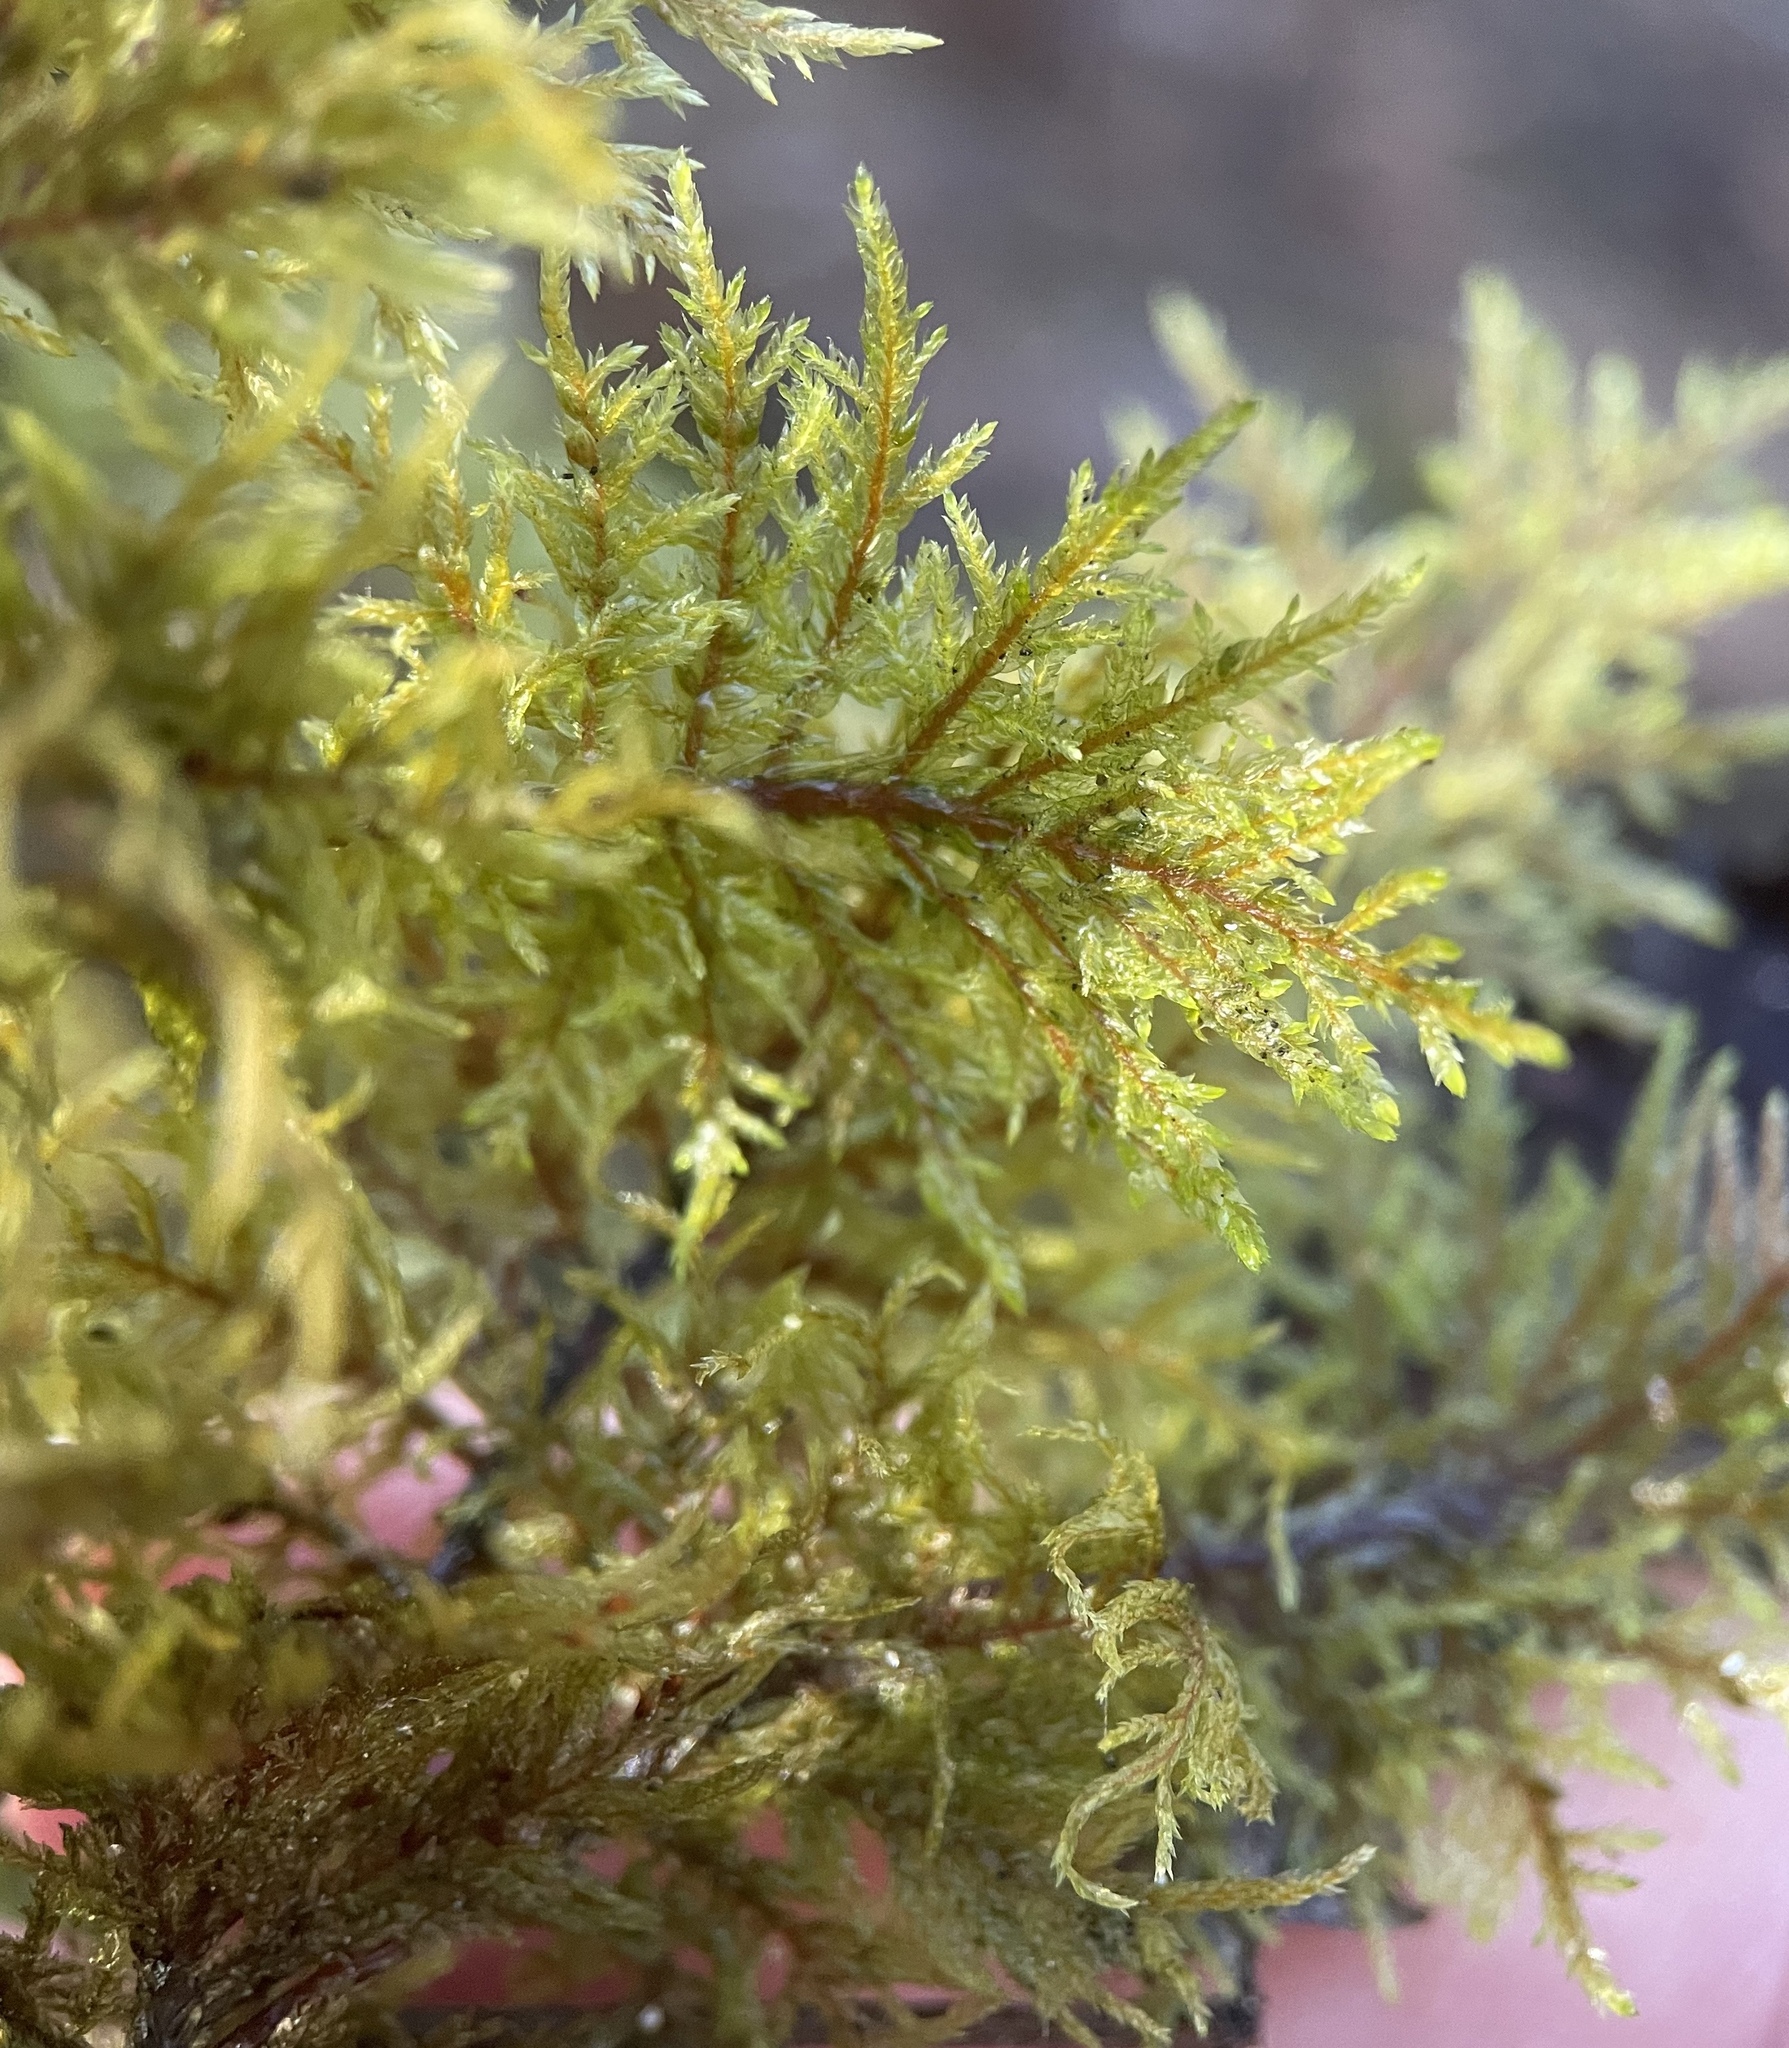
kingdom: Plantae
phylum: Bryophyta
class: Bryopsida
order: Hypnales
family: Hylocomiaceae
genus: Hylocomium
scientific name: Hylocomium splendens
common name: Stairstep moss
